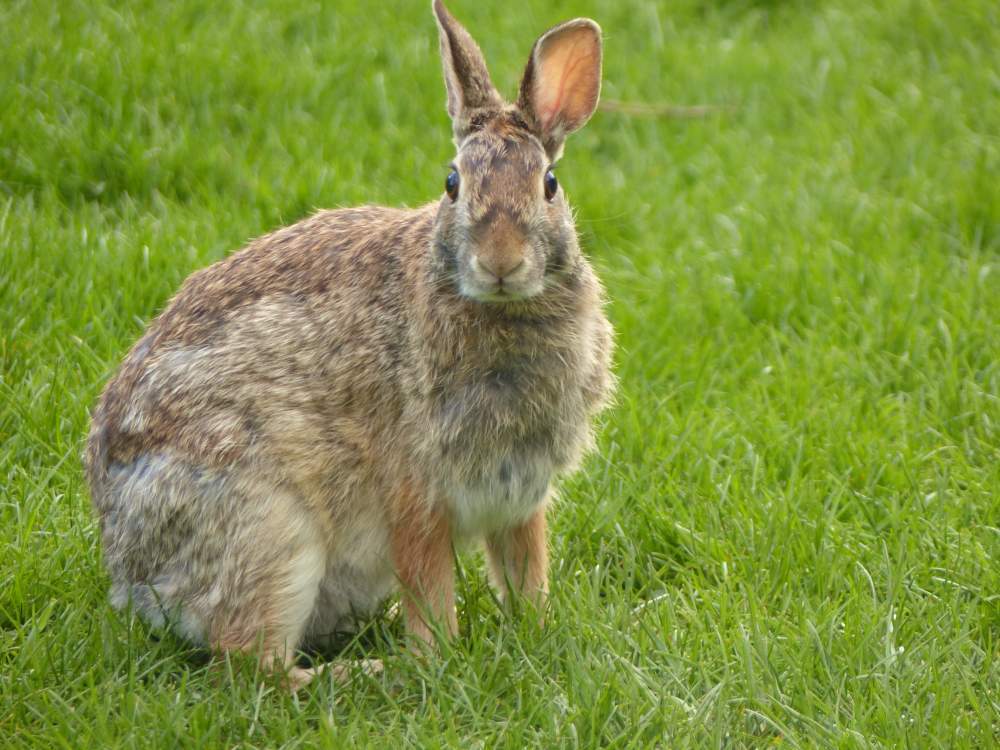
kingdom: Animalia
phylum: Chordata
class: Mammalia
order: Lagomorpha
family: Leporidae
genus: Sylvilagus
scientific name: Sylvilagus floridanus
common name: Eastern cottontail
